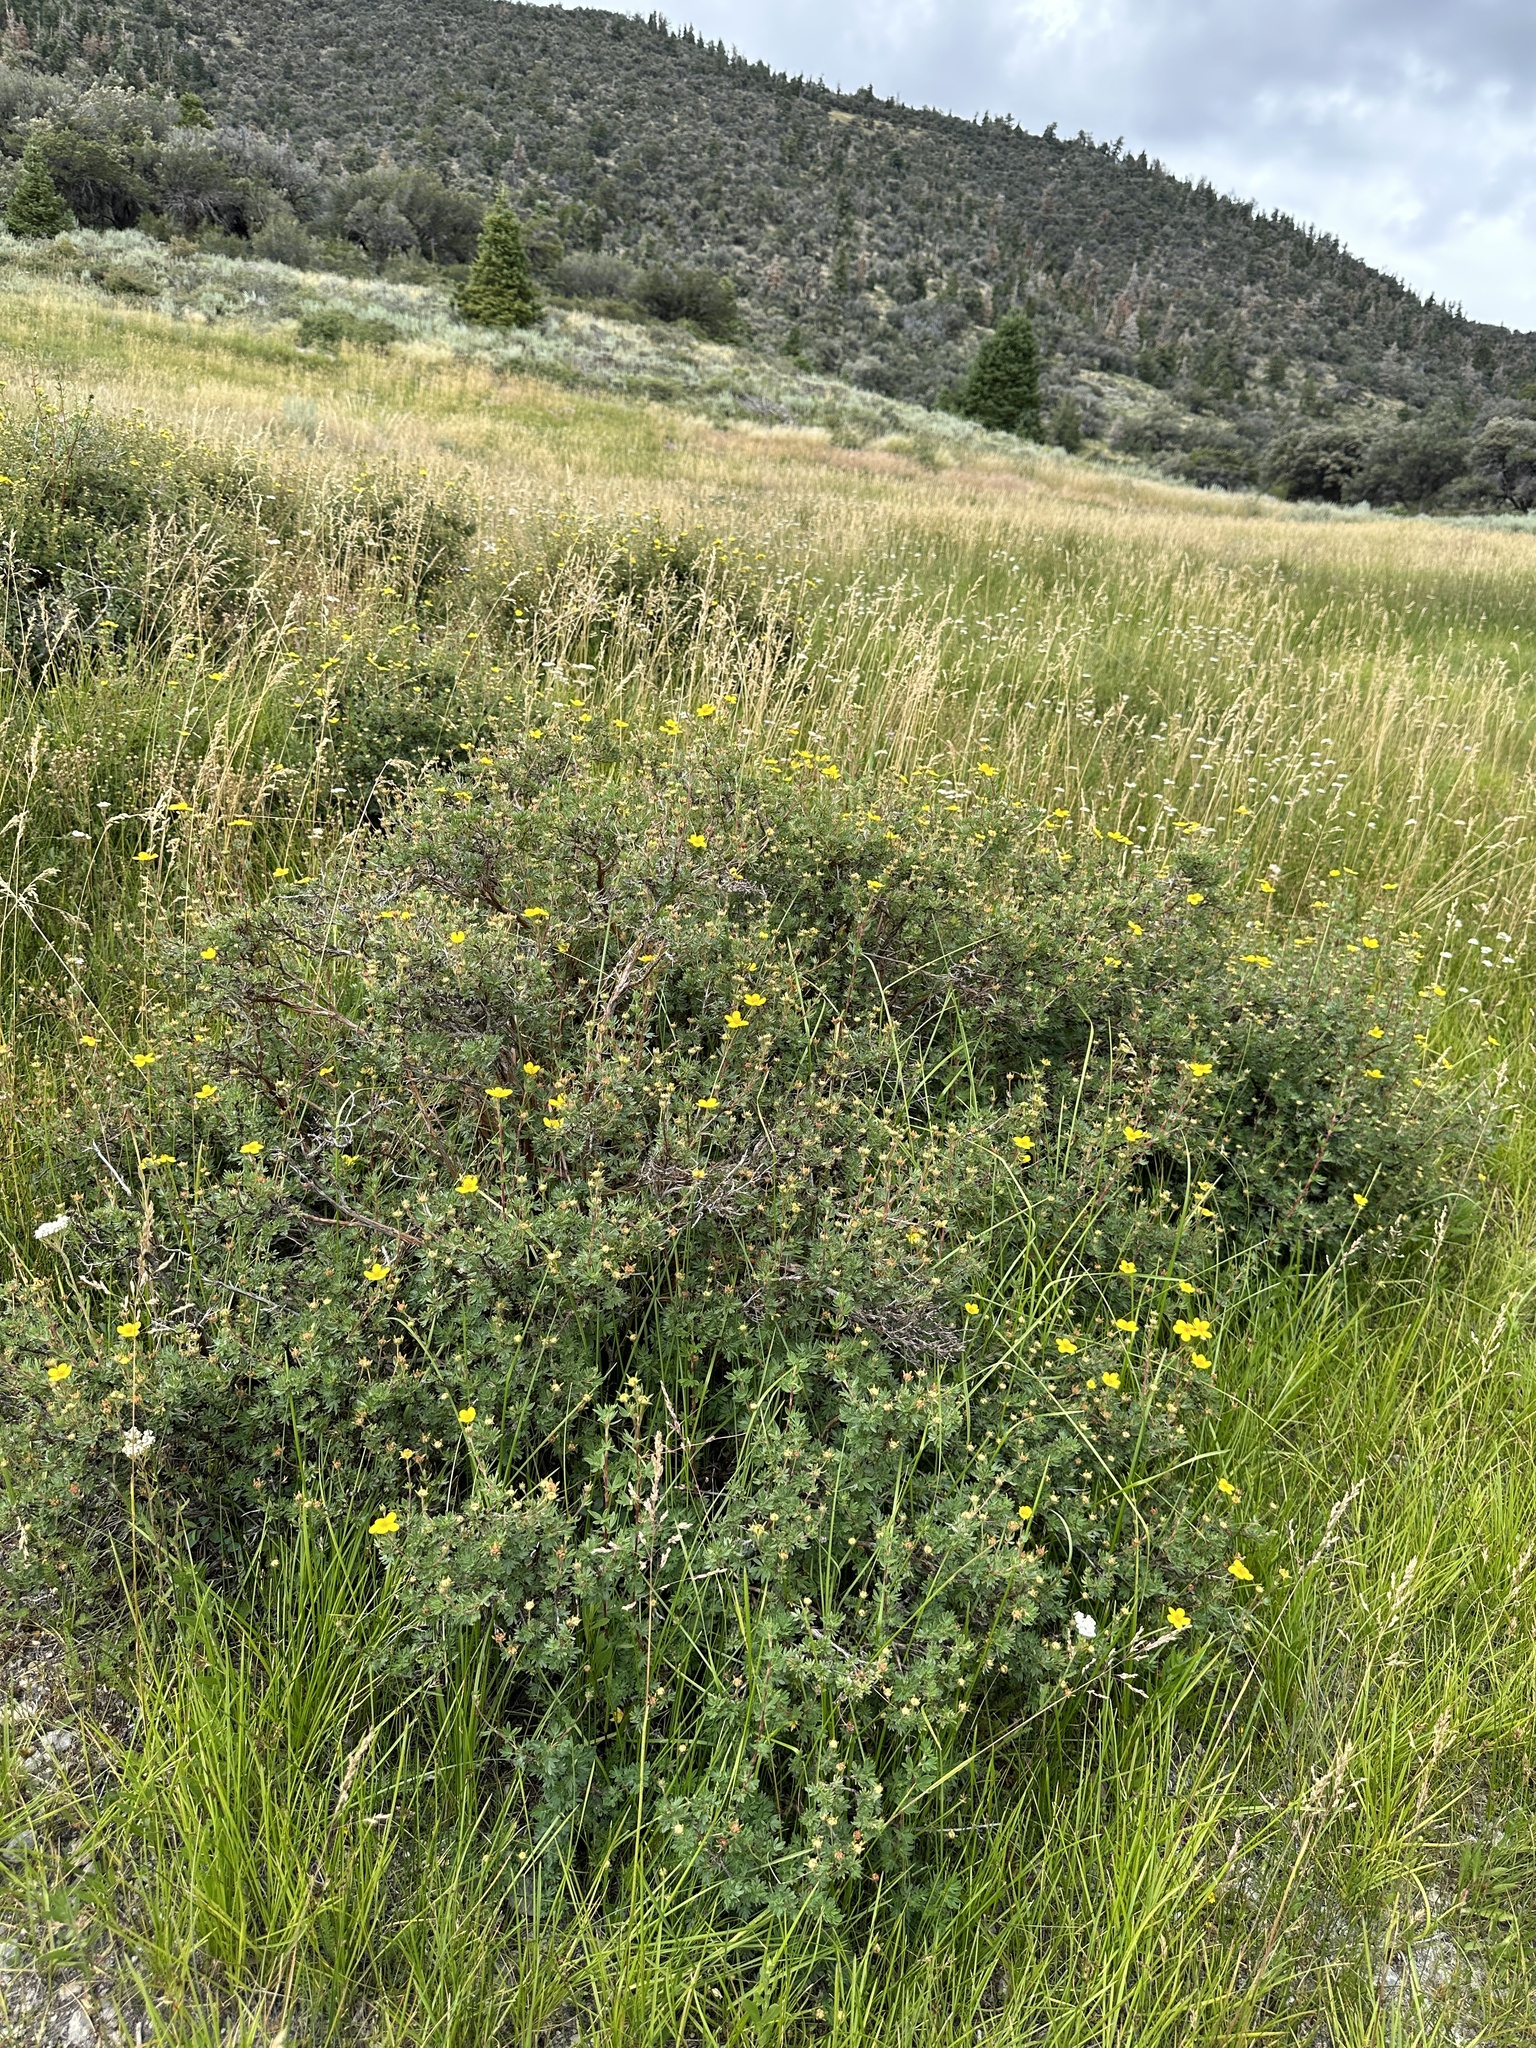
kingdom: Plantae
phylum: Tracheophyta
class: Magnoliopsida
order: Rosales
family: Rosaceae
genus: Dasiphora
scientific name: Dasiphora fruticosa
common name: Shrubby cinquefoil
